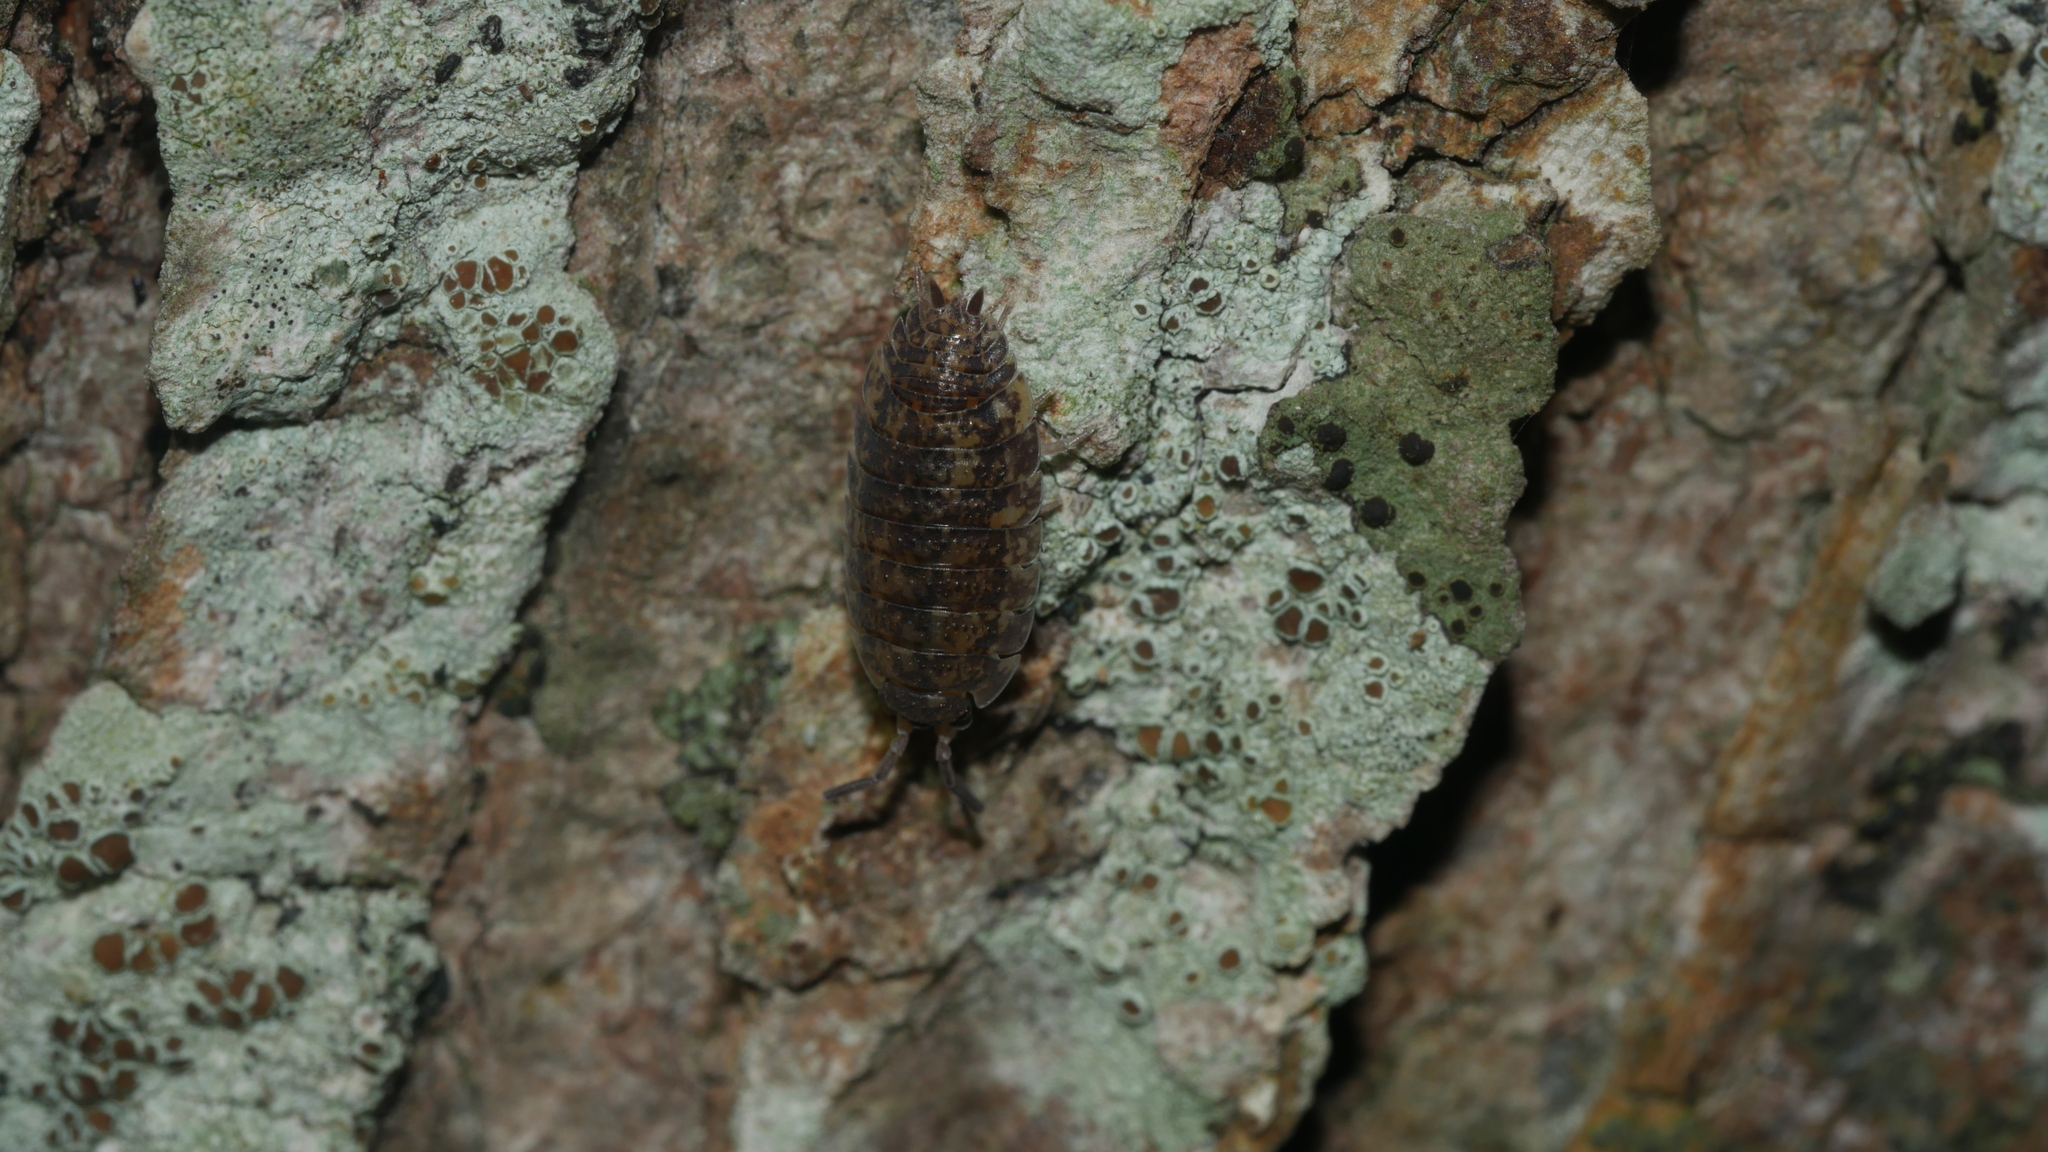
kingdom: Animalia
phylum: Arthropoda
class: Malacostraca
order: Isopoda
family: Porcellionidae
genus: Porcellio
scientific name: Porcellio scaber
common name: Common rough woodlouse
